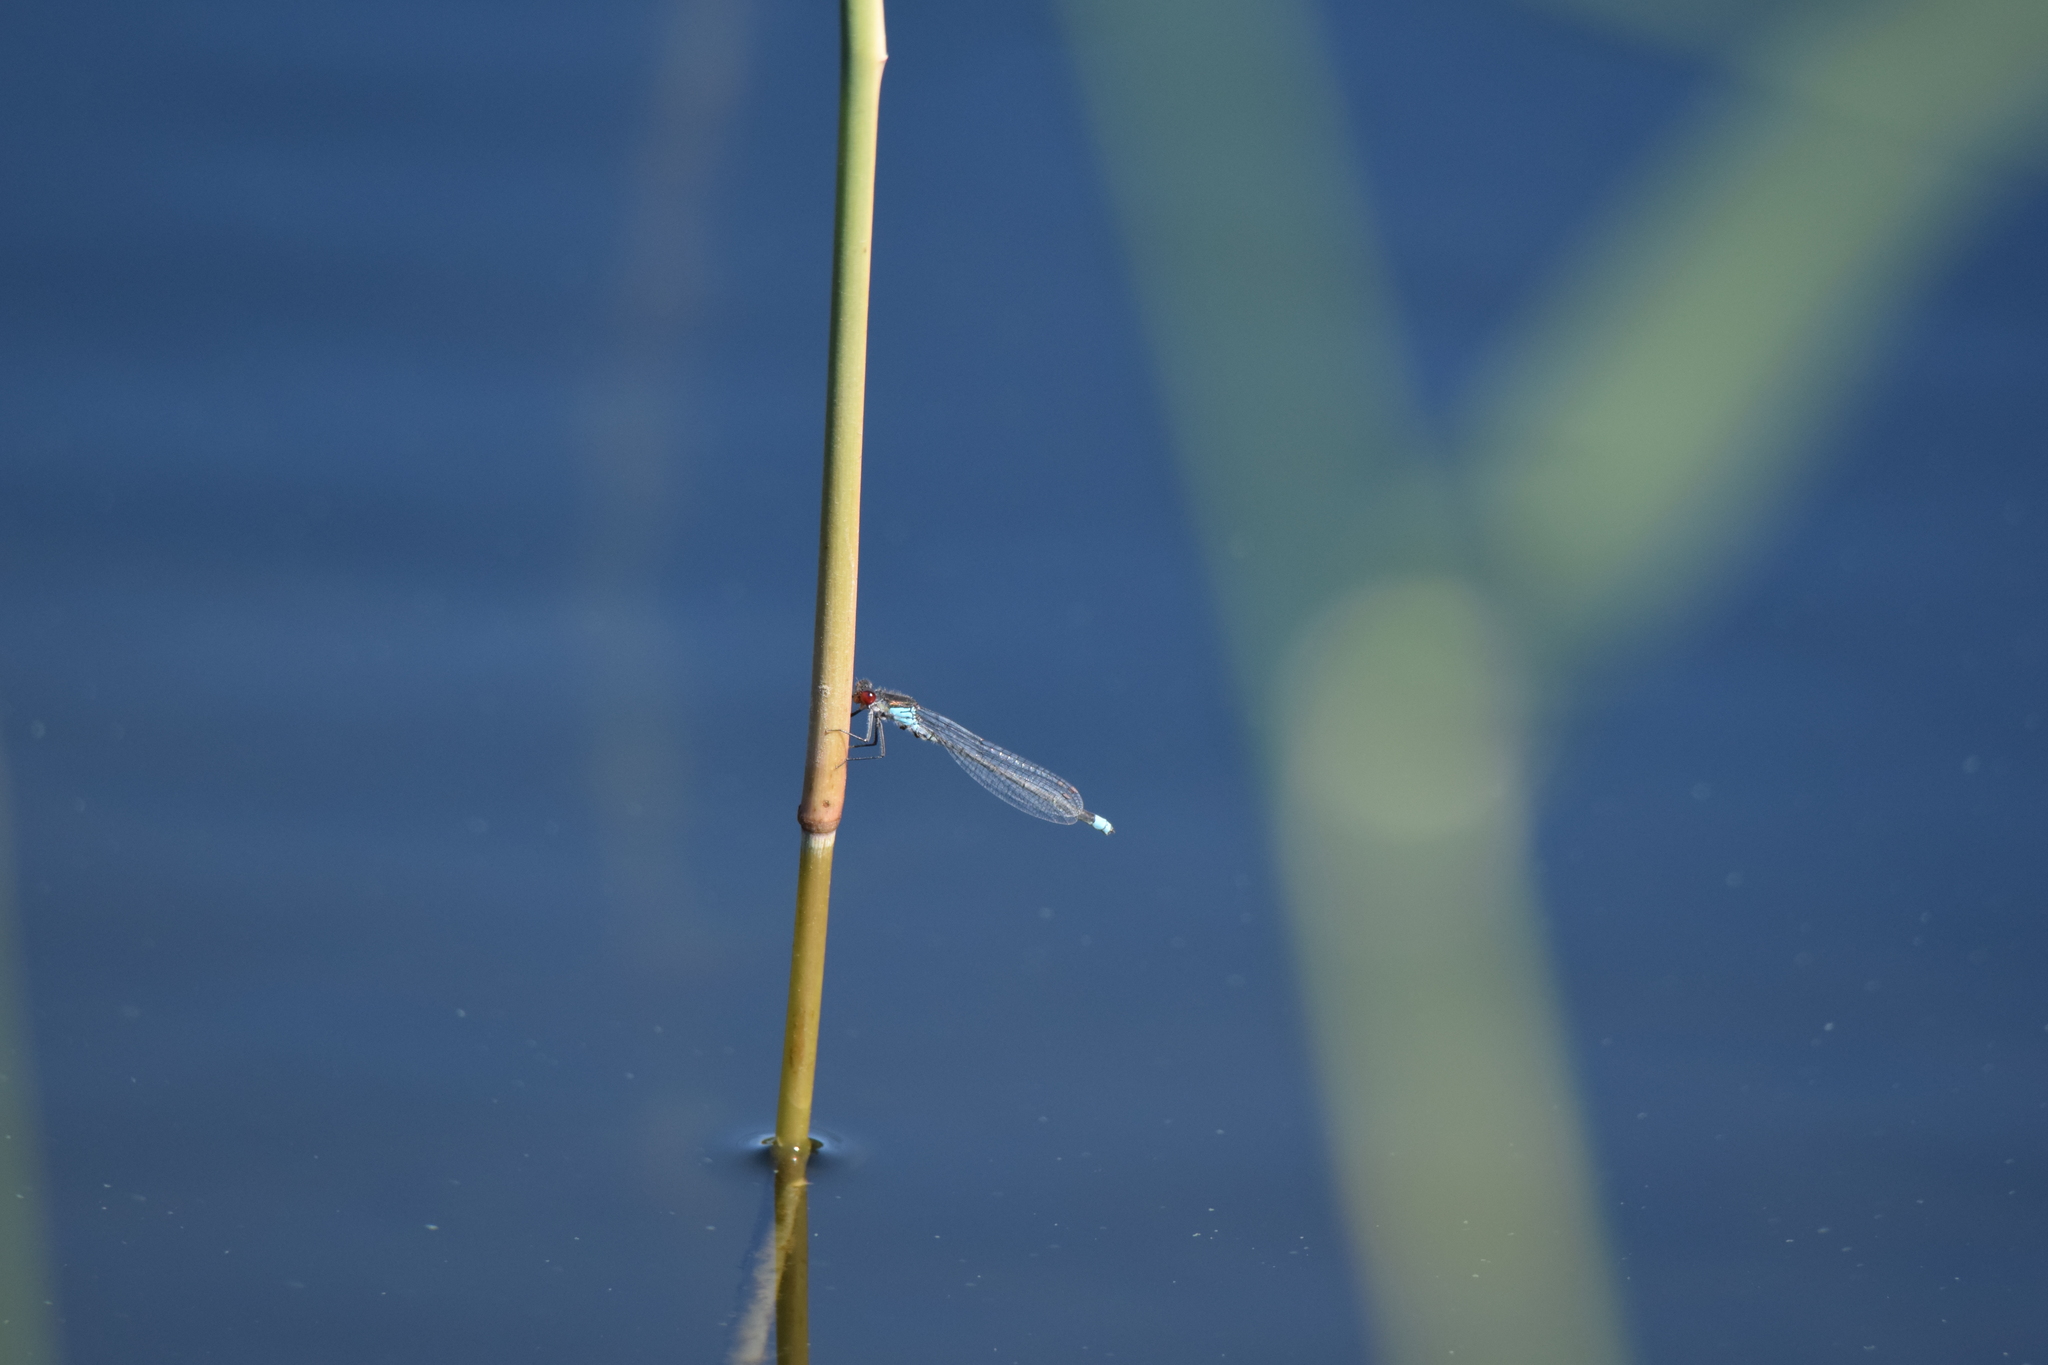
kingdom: Animalia
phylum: Arthropoda
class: Insecta
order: Odonata
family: Coenagrionidae
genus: Erythromma
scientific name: Erythromma najas
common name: Red-eyed damselfly
